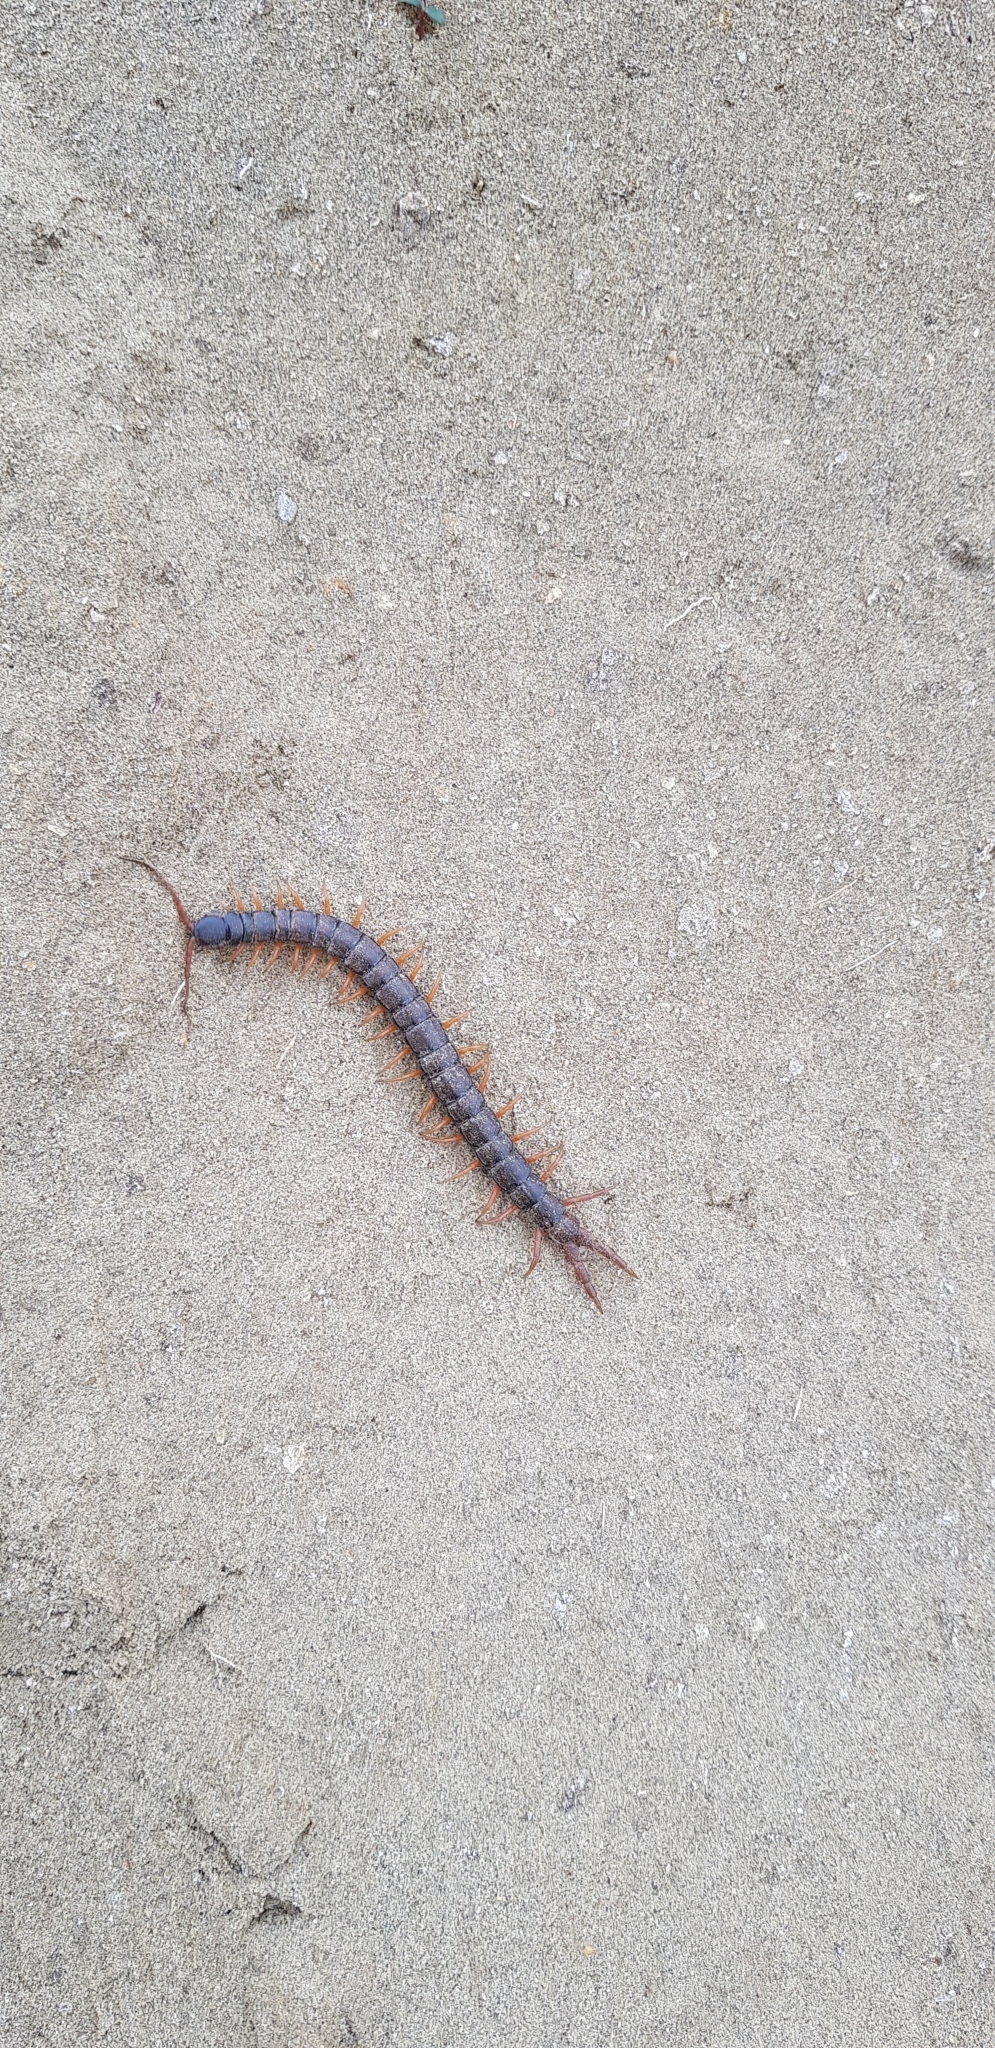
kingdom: Animalia
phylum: Arthropoda
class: Chilopoda
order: Scolopendromorpha
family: Scolopendridae
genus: Scolopendra
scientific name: Scolopendra cingulata
